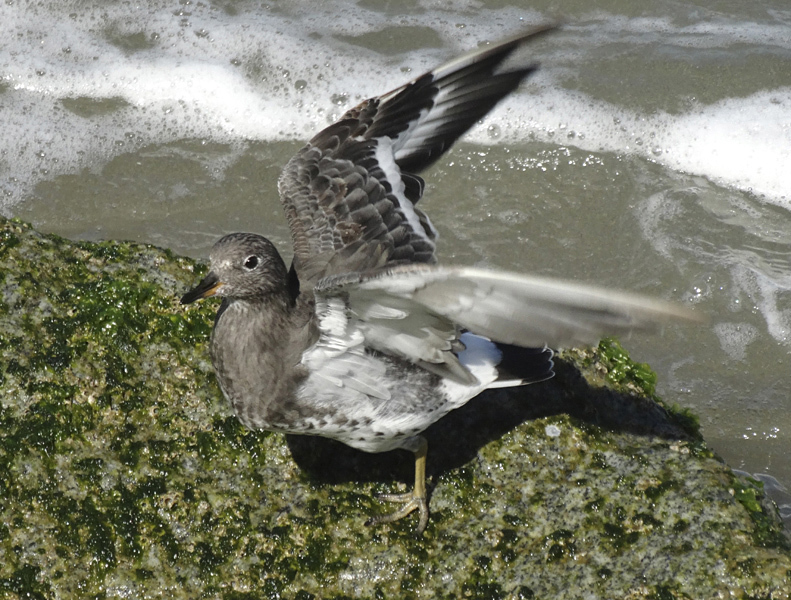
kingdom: Animalia
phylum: Chordata
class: Aves
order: Charadriiformes
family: Scolopacidae
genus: Calidris
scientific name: Calidris virgata
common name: Surfbird
